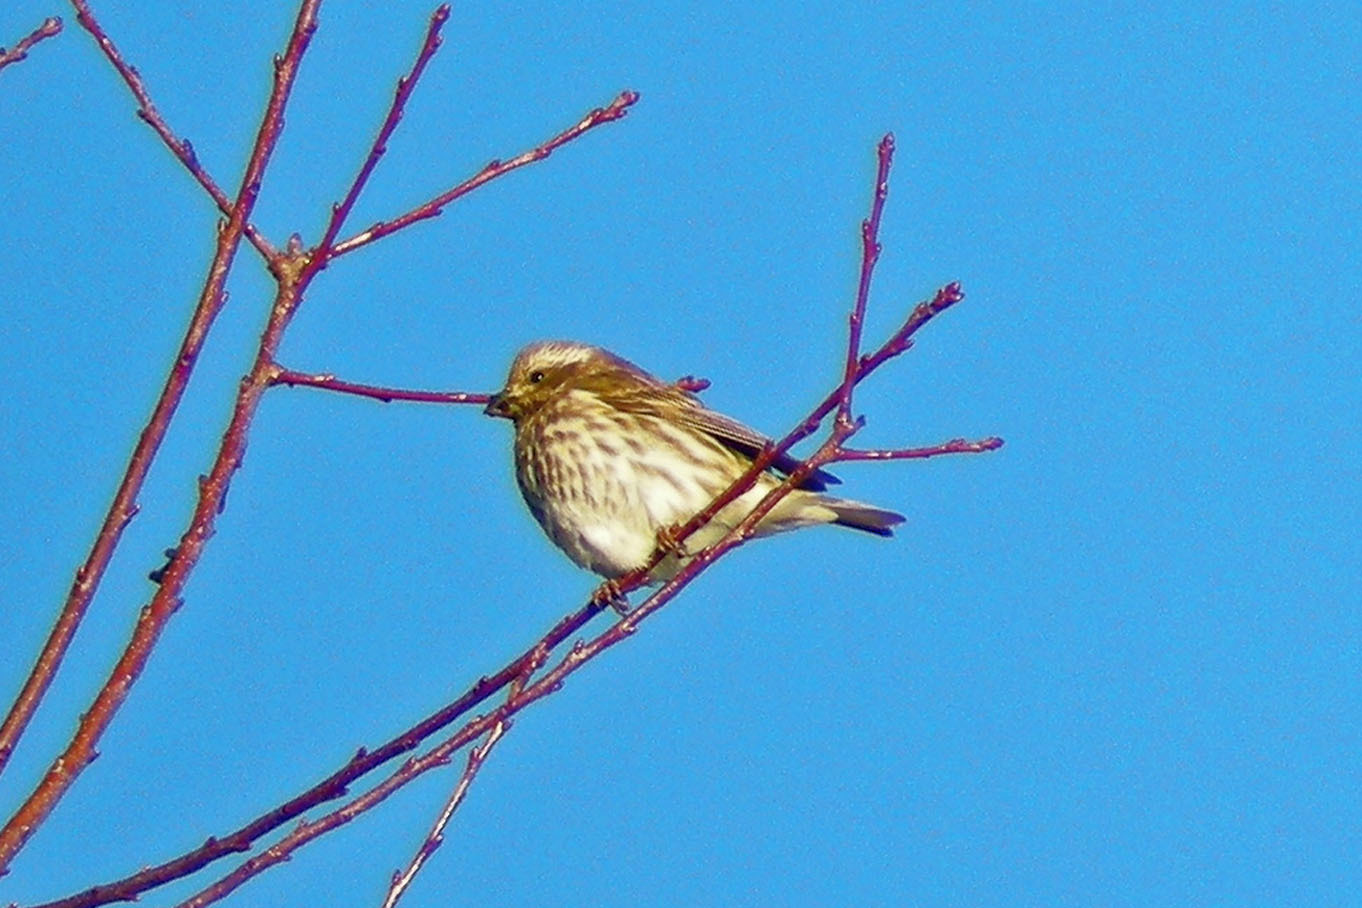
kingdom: Animalia
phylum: Chordata
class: Aves
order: Passeriformes
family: Fringillidae
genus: Haemorhous
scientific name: Haemorhous purpureus
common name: Purple finch
